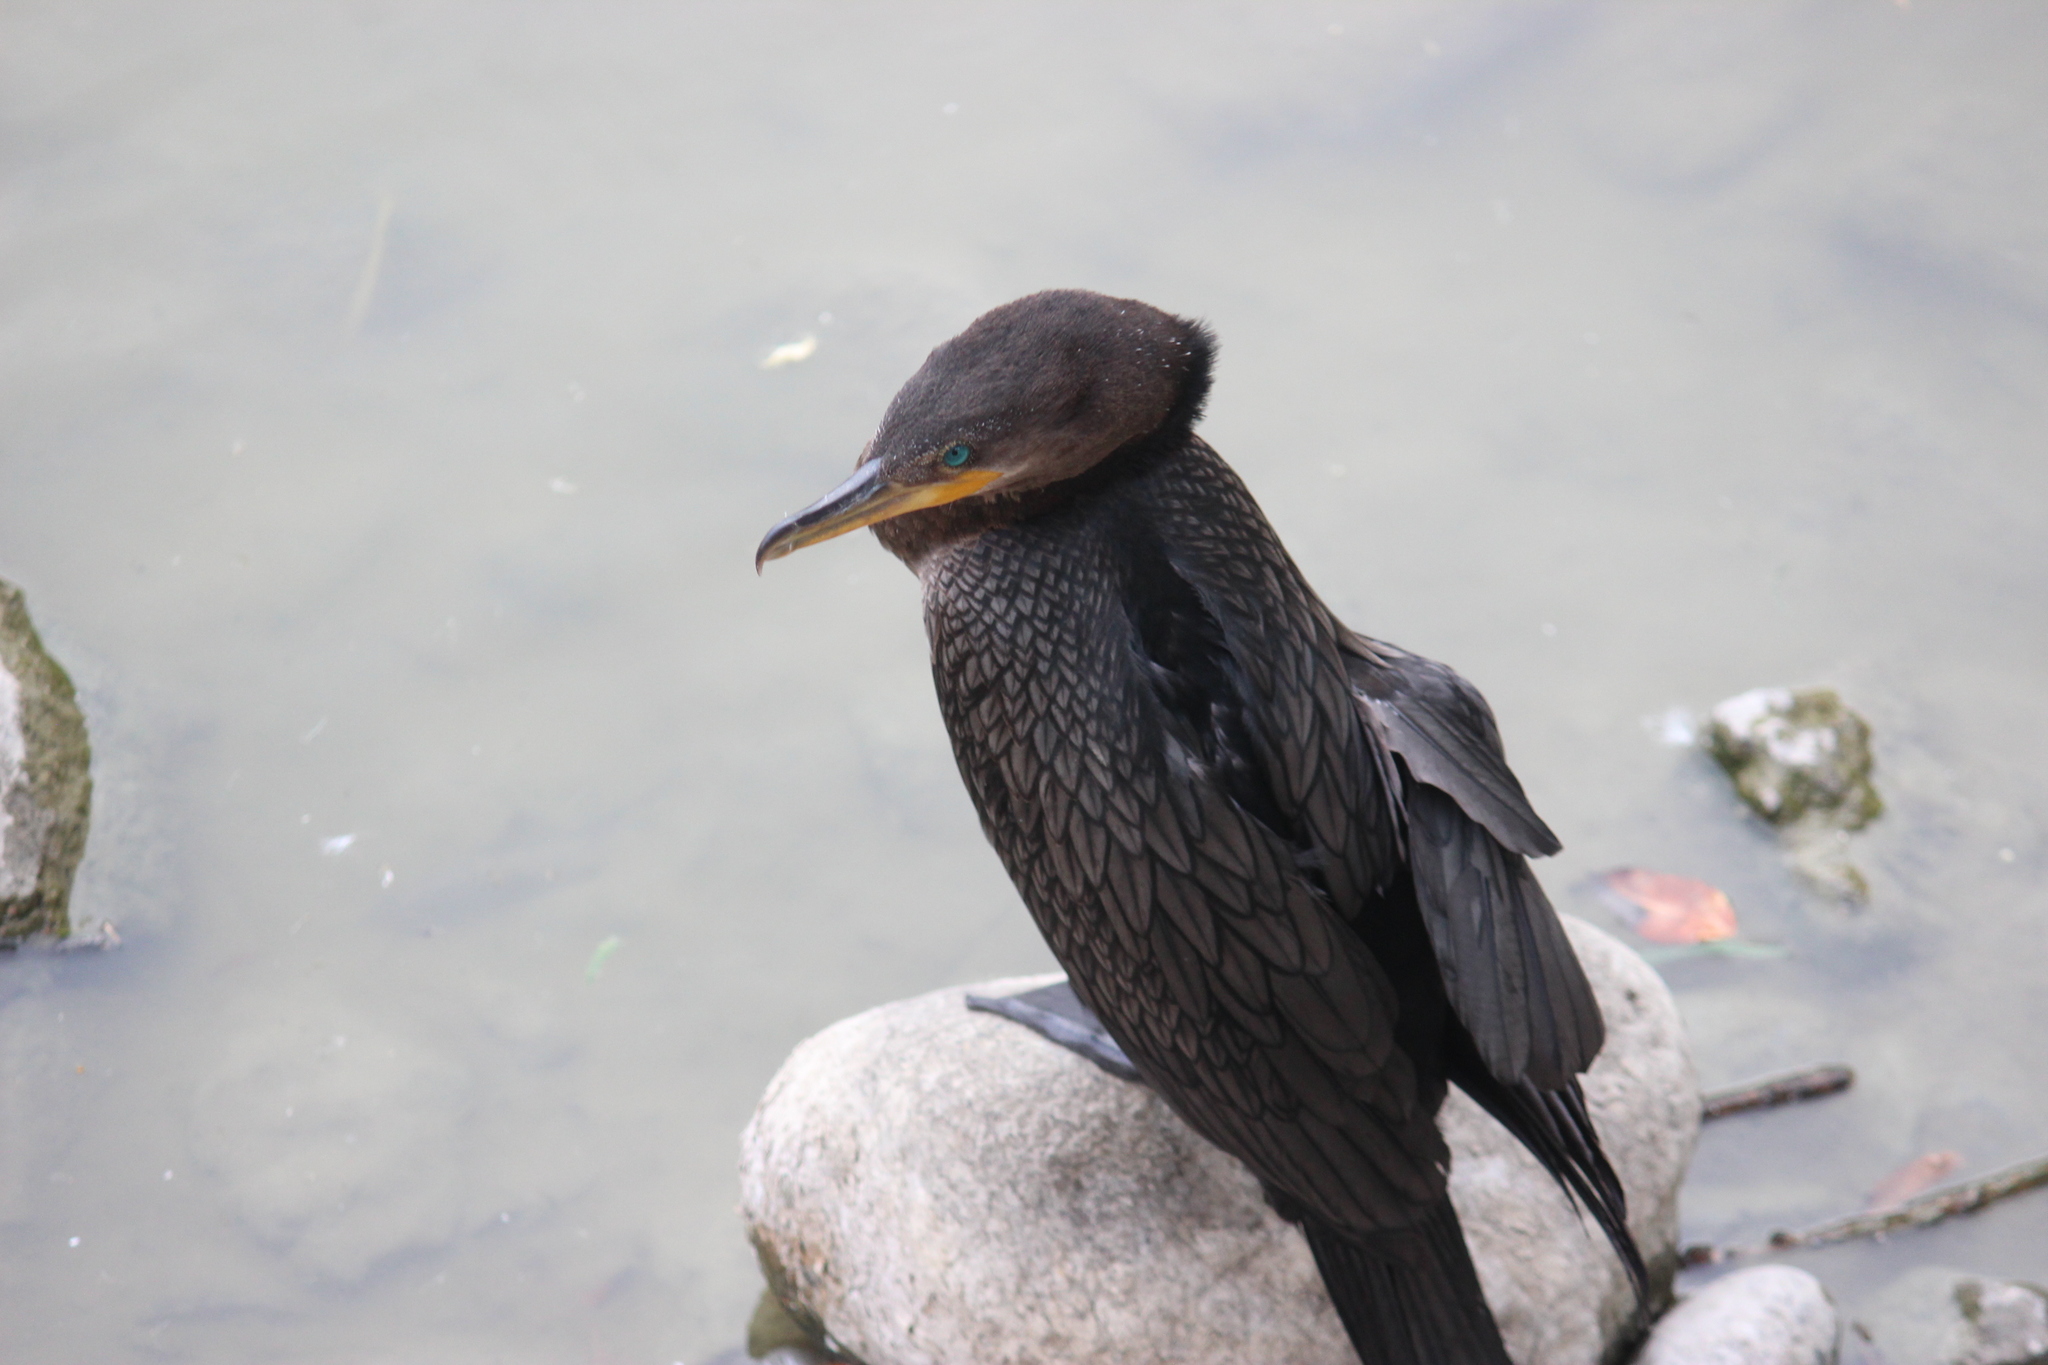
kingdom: Animalia
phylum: Chordata
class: Aves
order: Suliformes
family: Phalacrocoracidae
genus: Phalacrocorax
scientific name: Phalacrocorax brasilianus
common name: Neotropic cormorant
